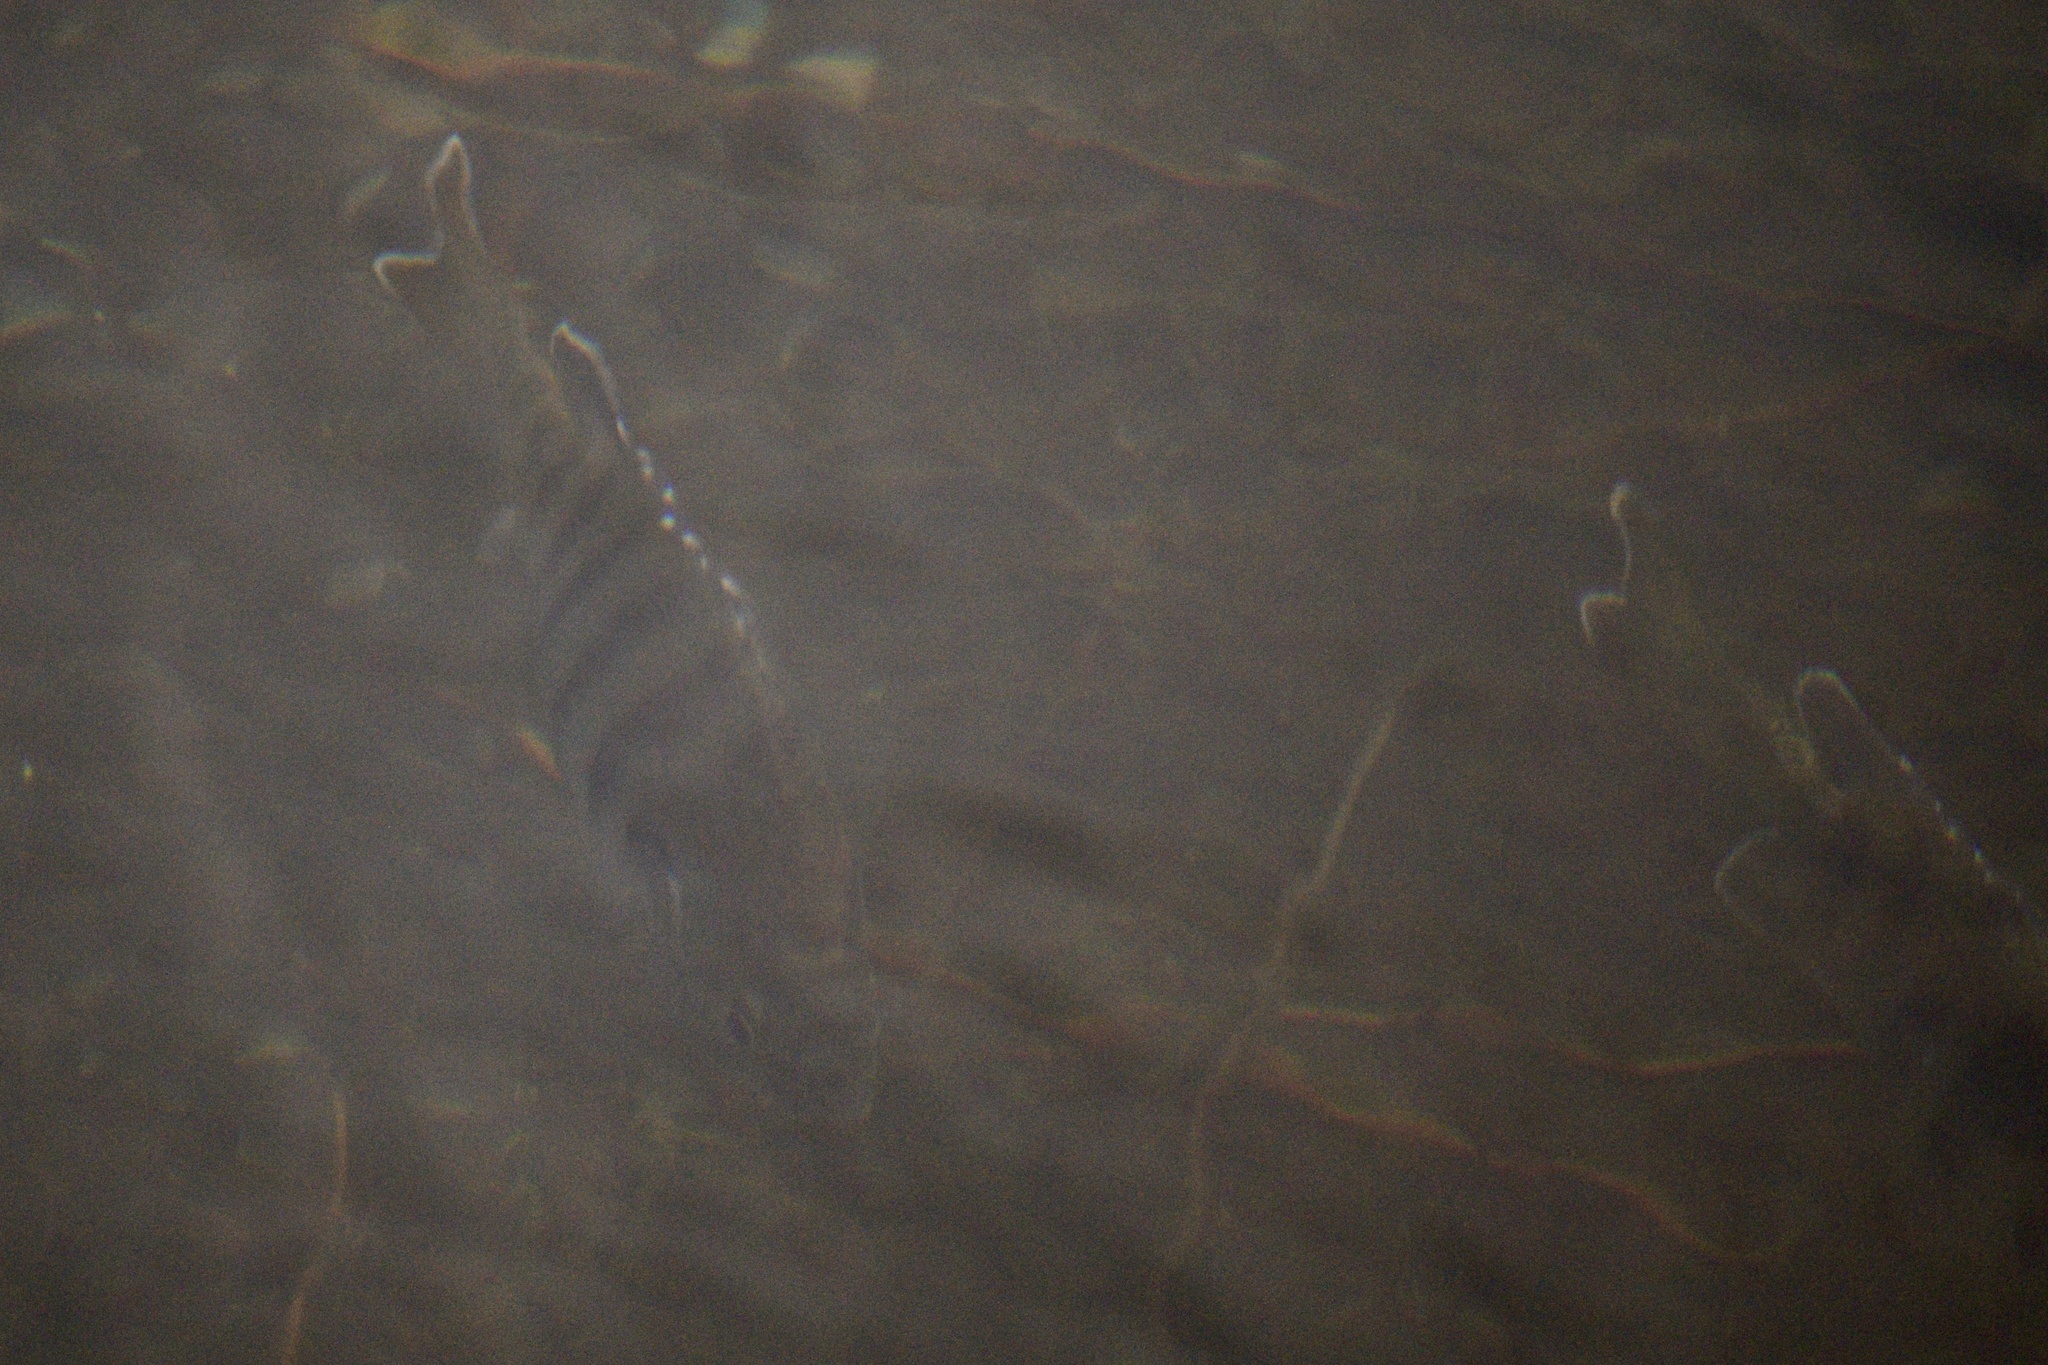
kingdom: Animalia
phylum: Chordata
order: Perciformes
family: Centrarchidae
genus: Lepomis
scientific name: Lepomis macrochirus
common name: Bluegill
